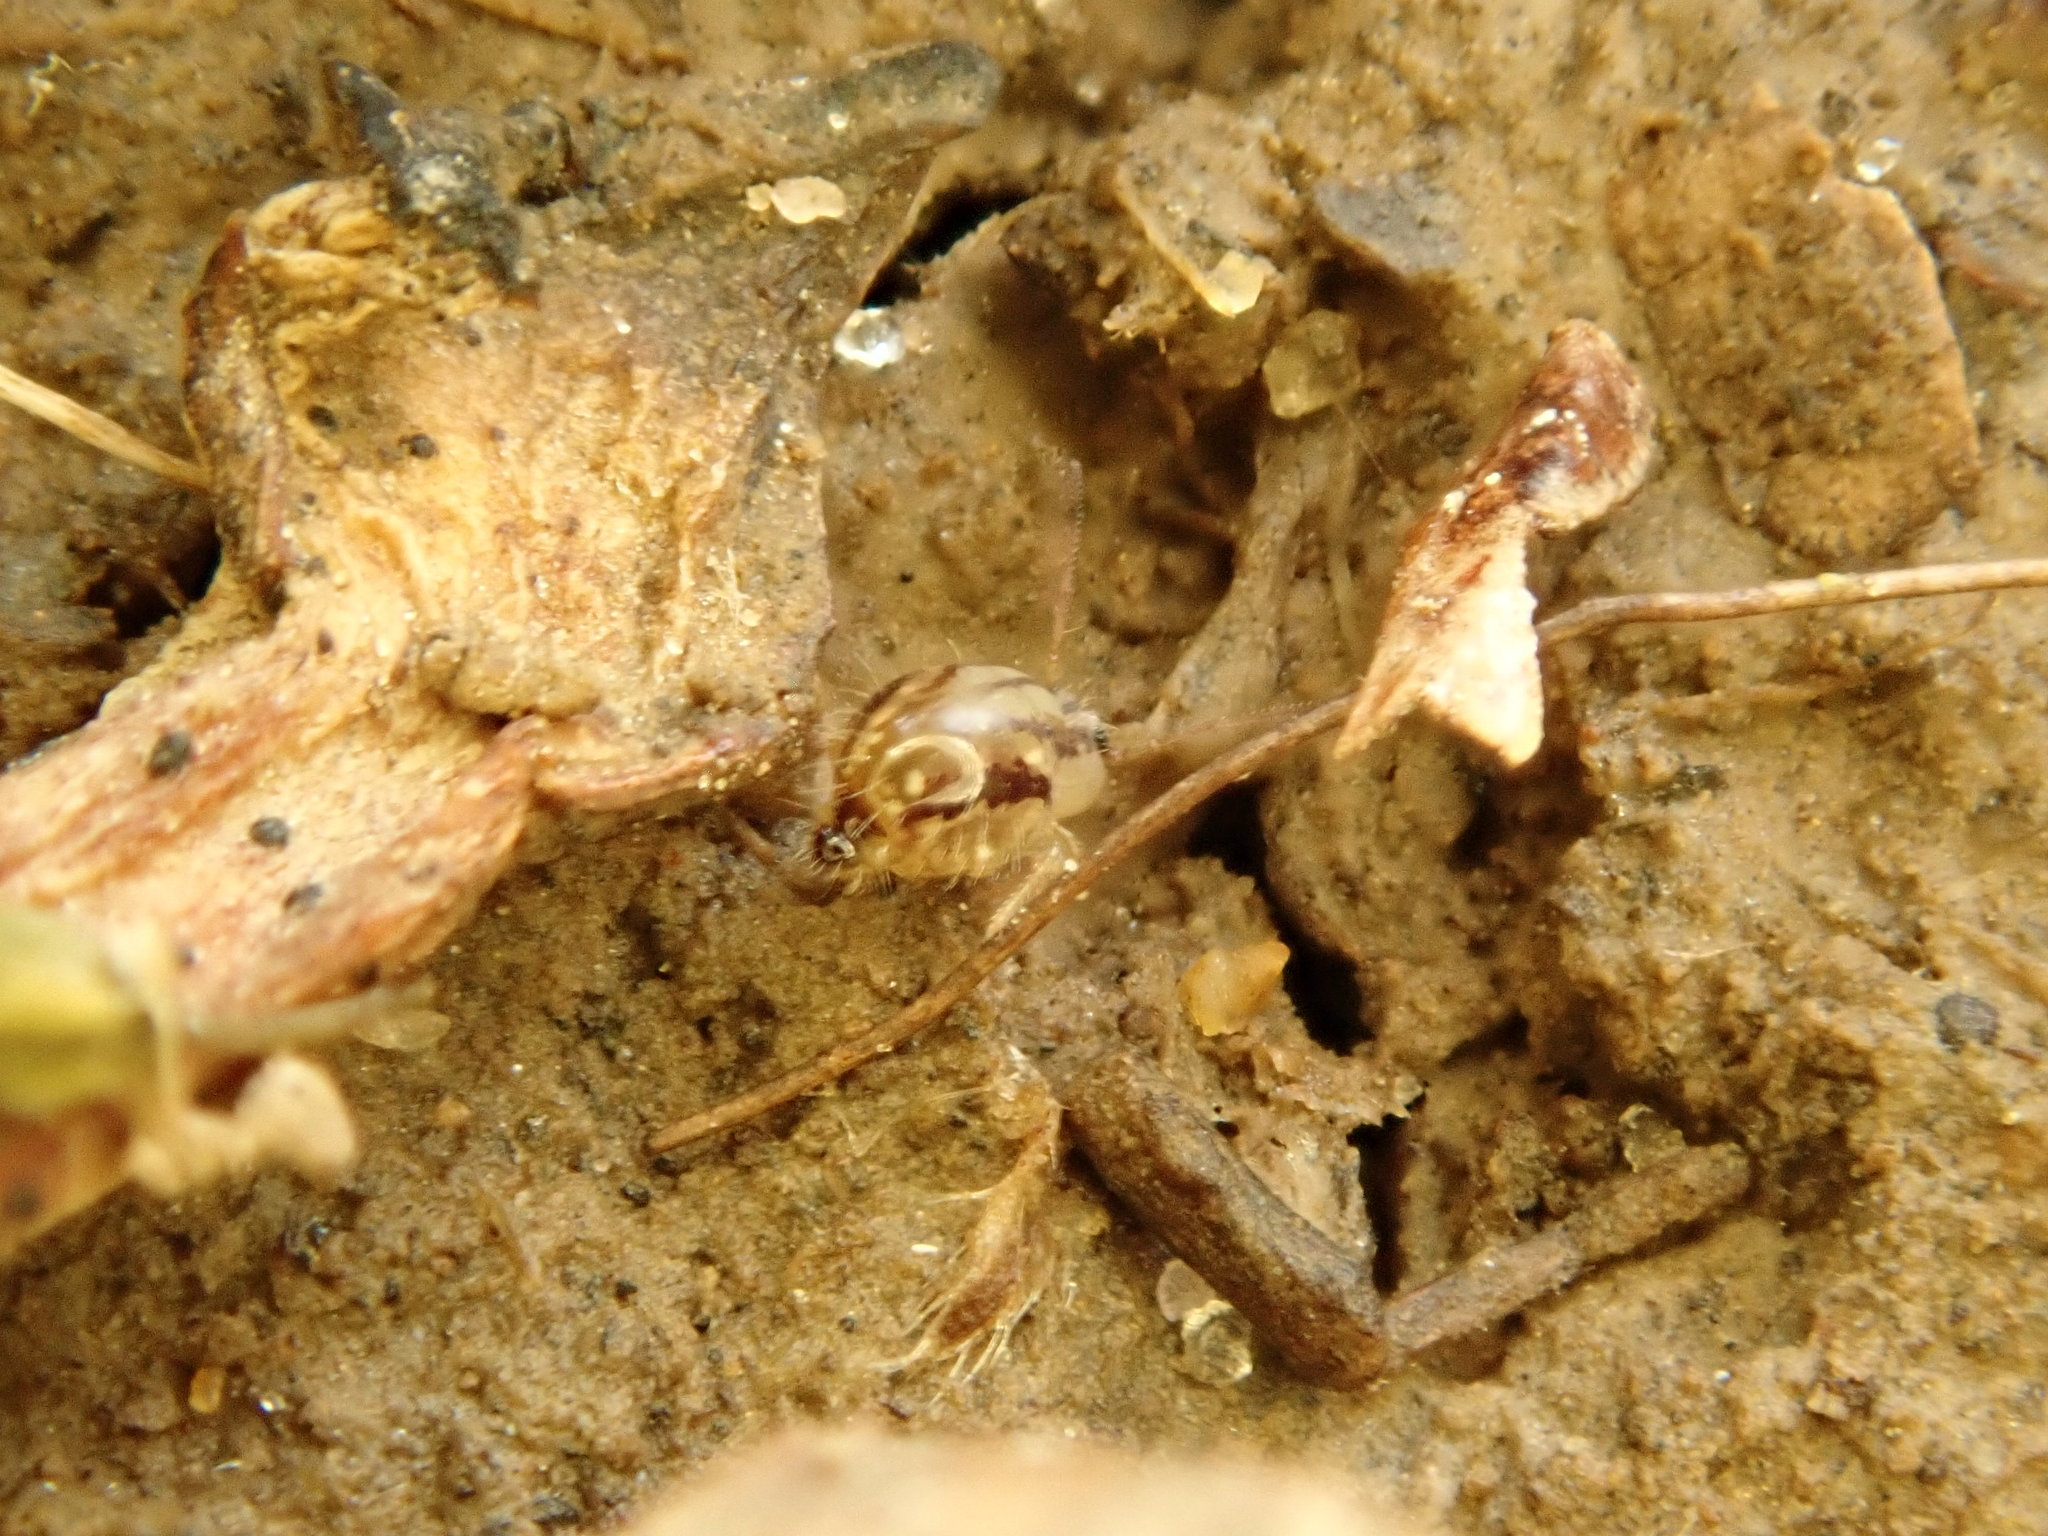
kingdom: Animalia
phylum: Arthropoda
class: Collembola
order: Symphypleona
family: Sminthuridae
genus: Sminthurus
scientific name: Sminthurus mencenbergae
